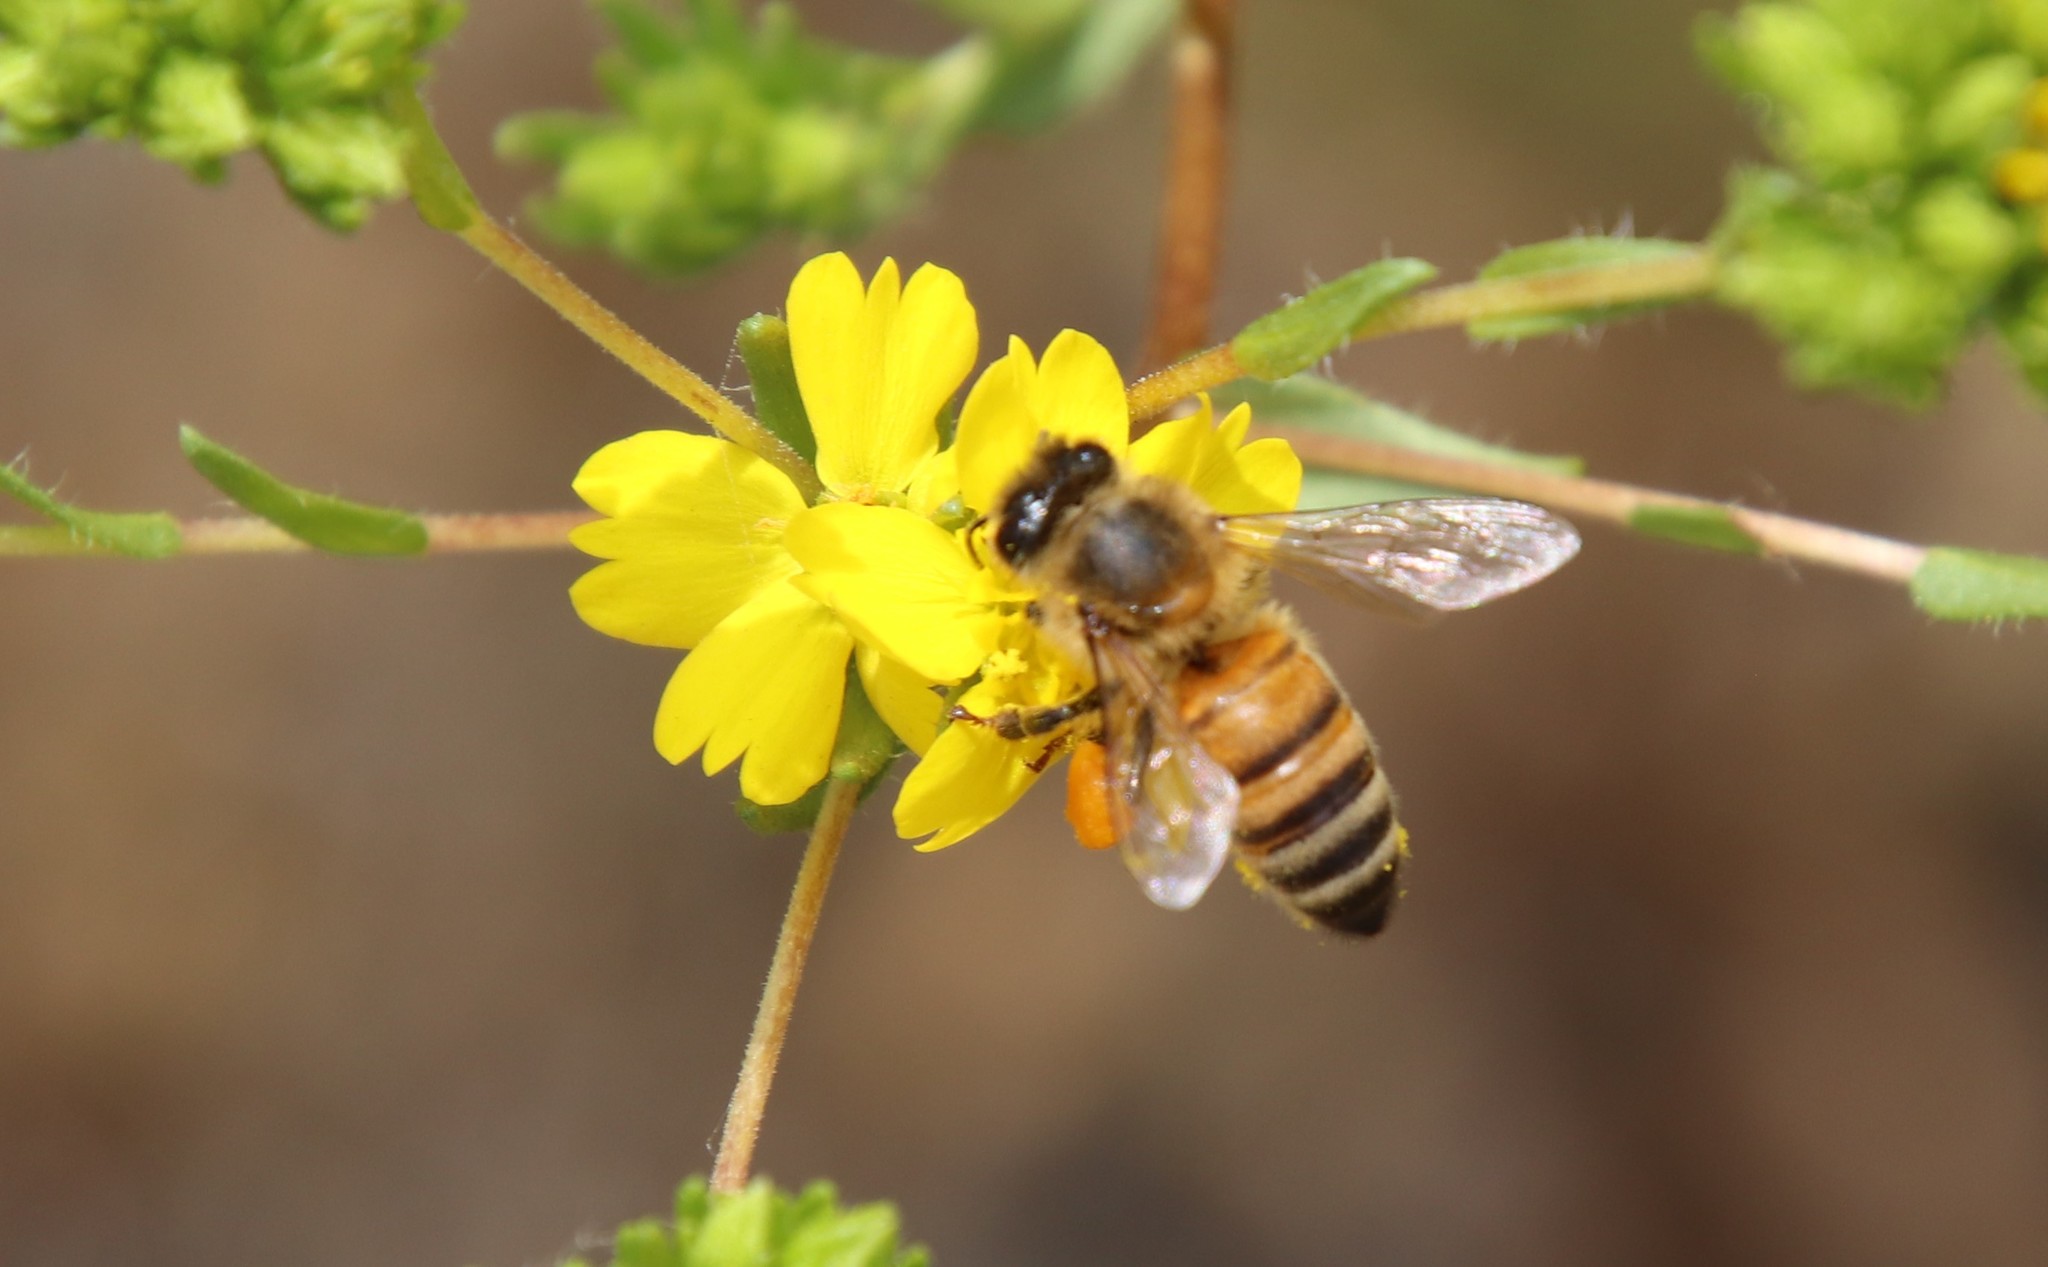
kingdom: Animalia
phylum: Arthropoda
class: Insecta
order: Hymenoptera
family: Apidae
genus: Apis
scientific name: Apis mellifera
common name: Honey bee
